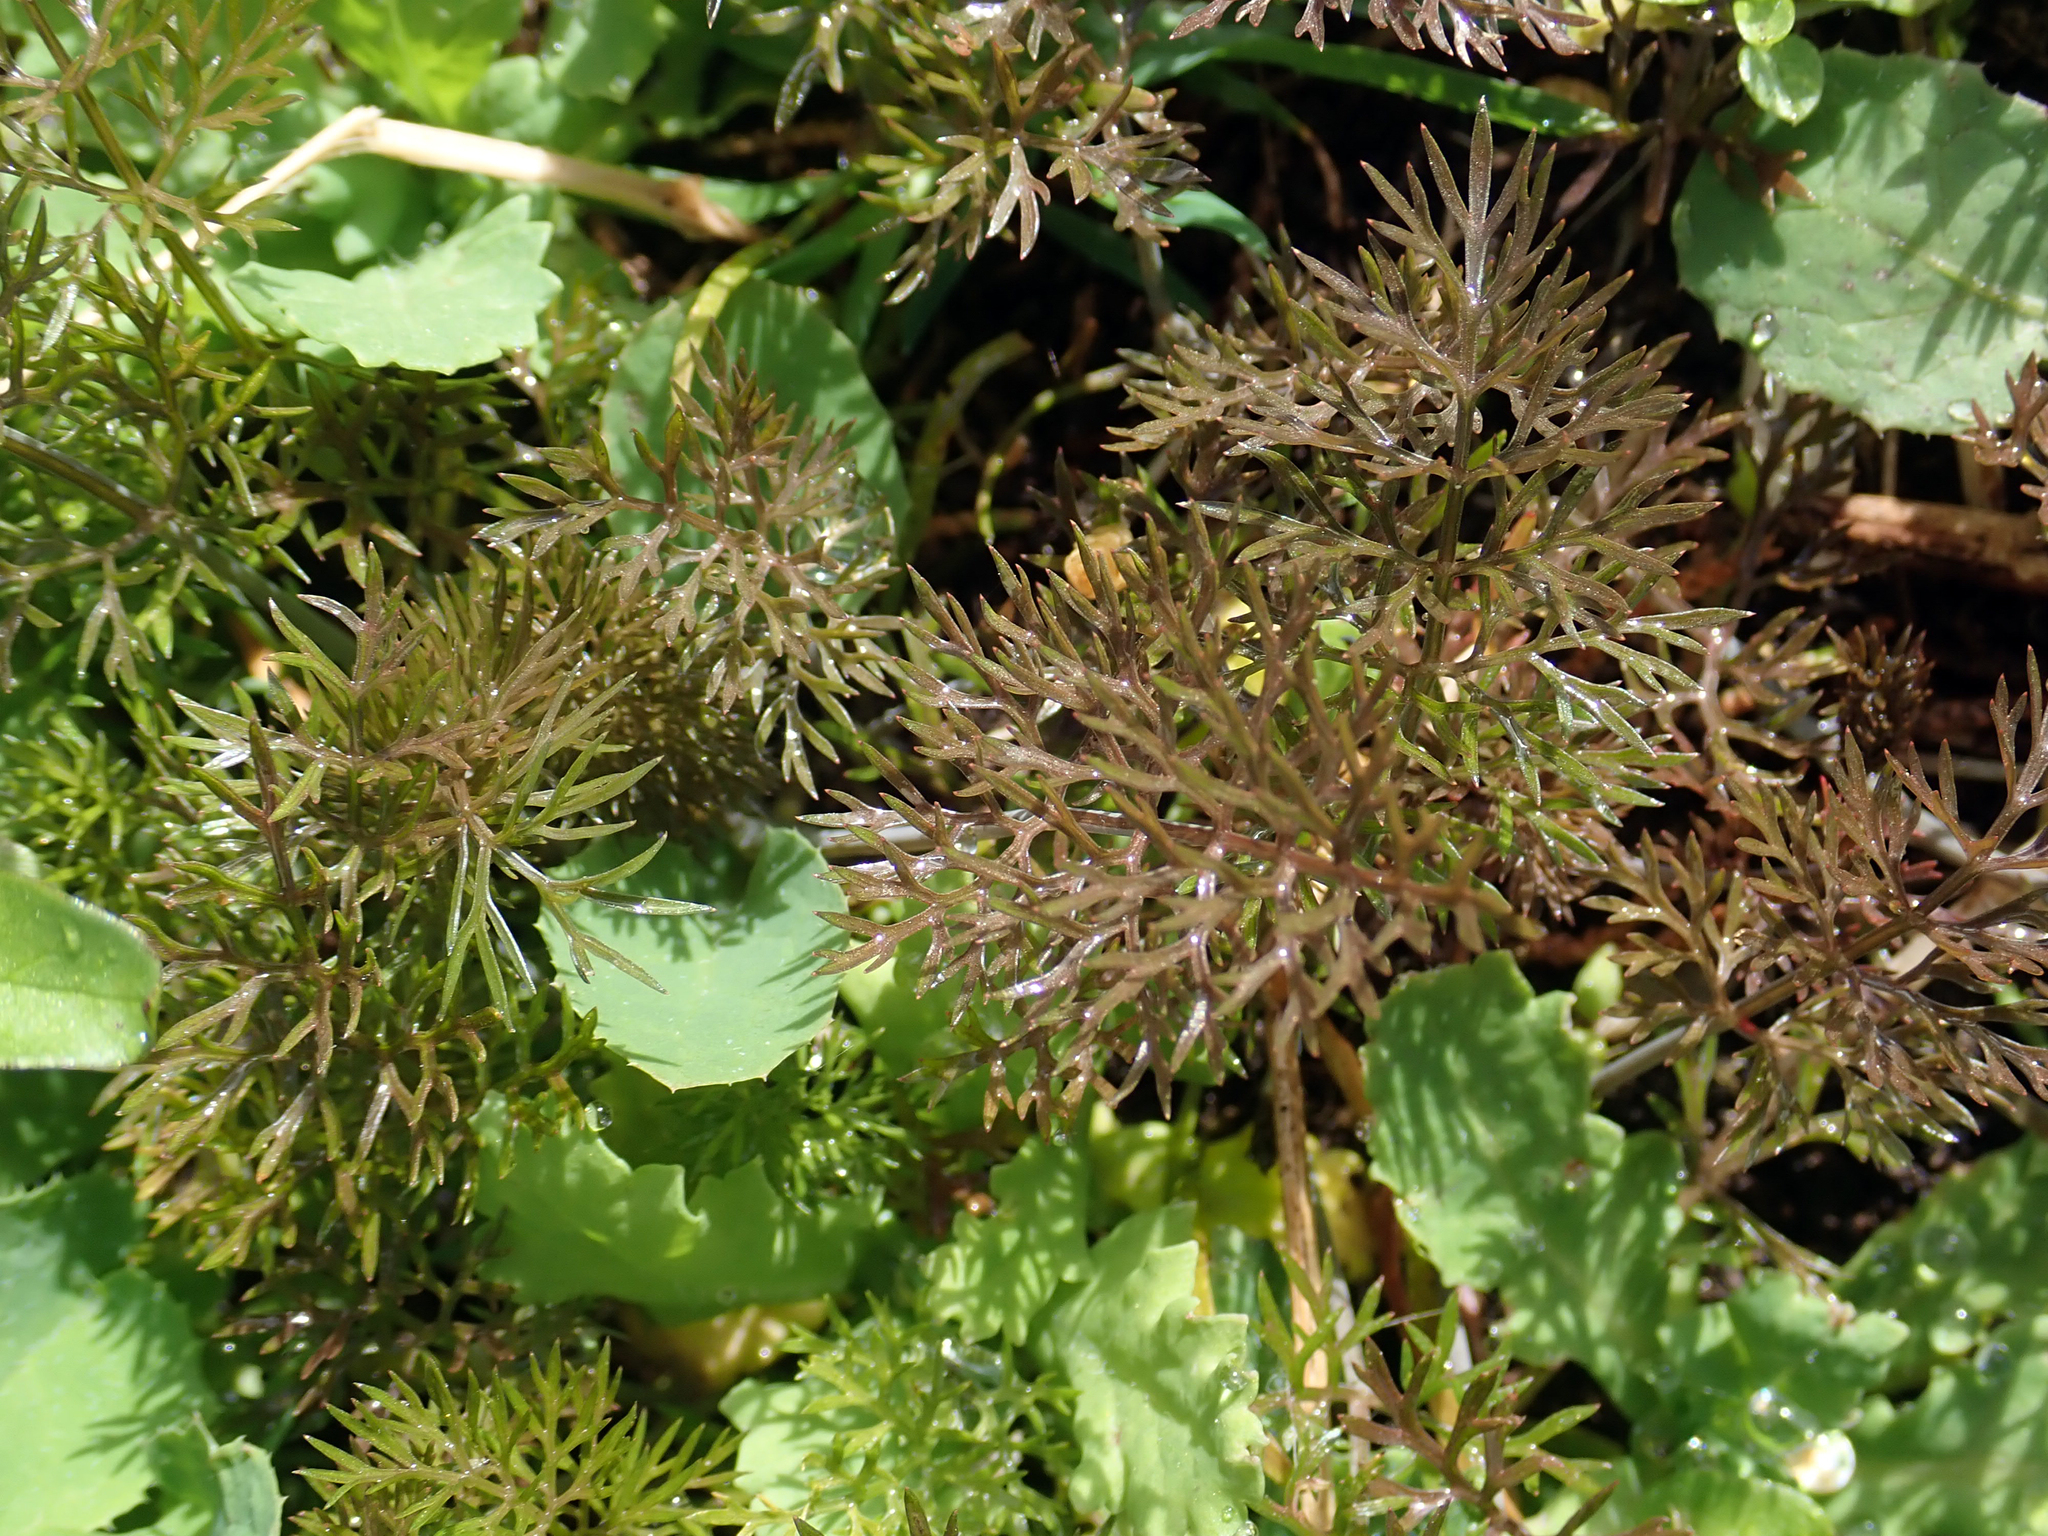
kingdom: Plantae
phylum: Tracheophyta
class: Magnoliopsida
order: Apiales
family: Apiaceae
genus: Foeniculum
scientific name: Foeniculum vulgare
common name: Fennel
